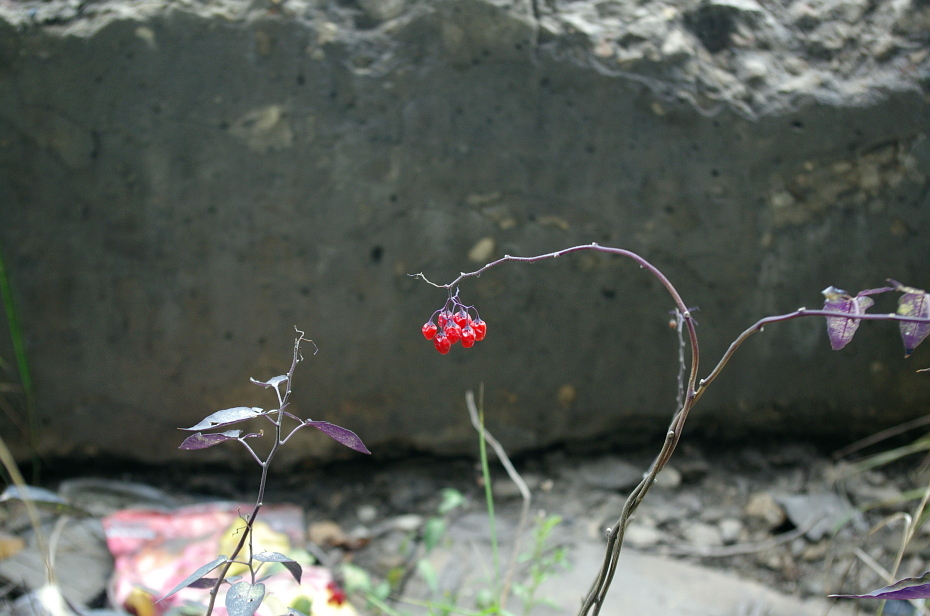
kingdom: Plantae
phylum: Tracheophyta
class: Magnoliopsida
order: Solanales
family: Solanaceae
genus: Solanum
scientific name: Solanum dulcamara
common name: Climbing nightshade
